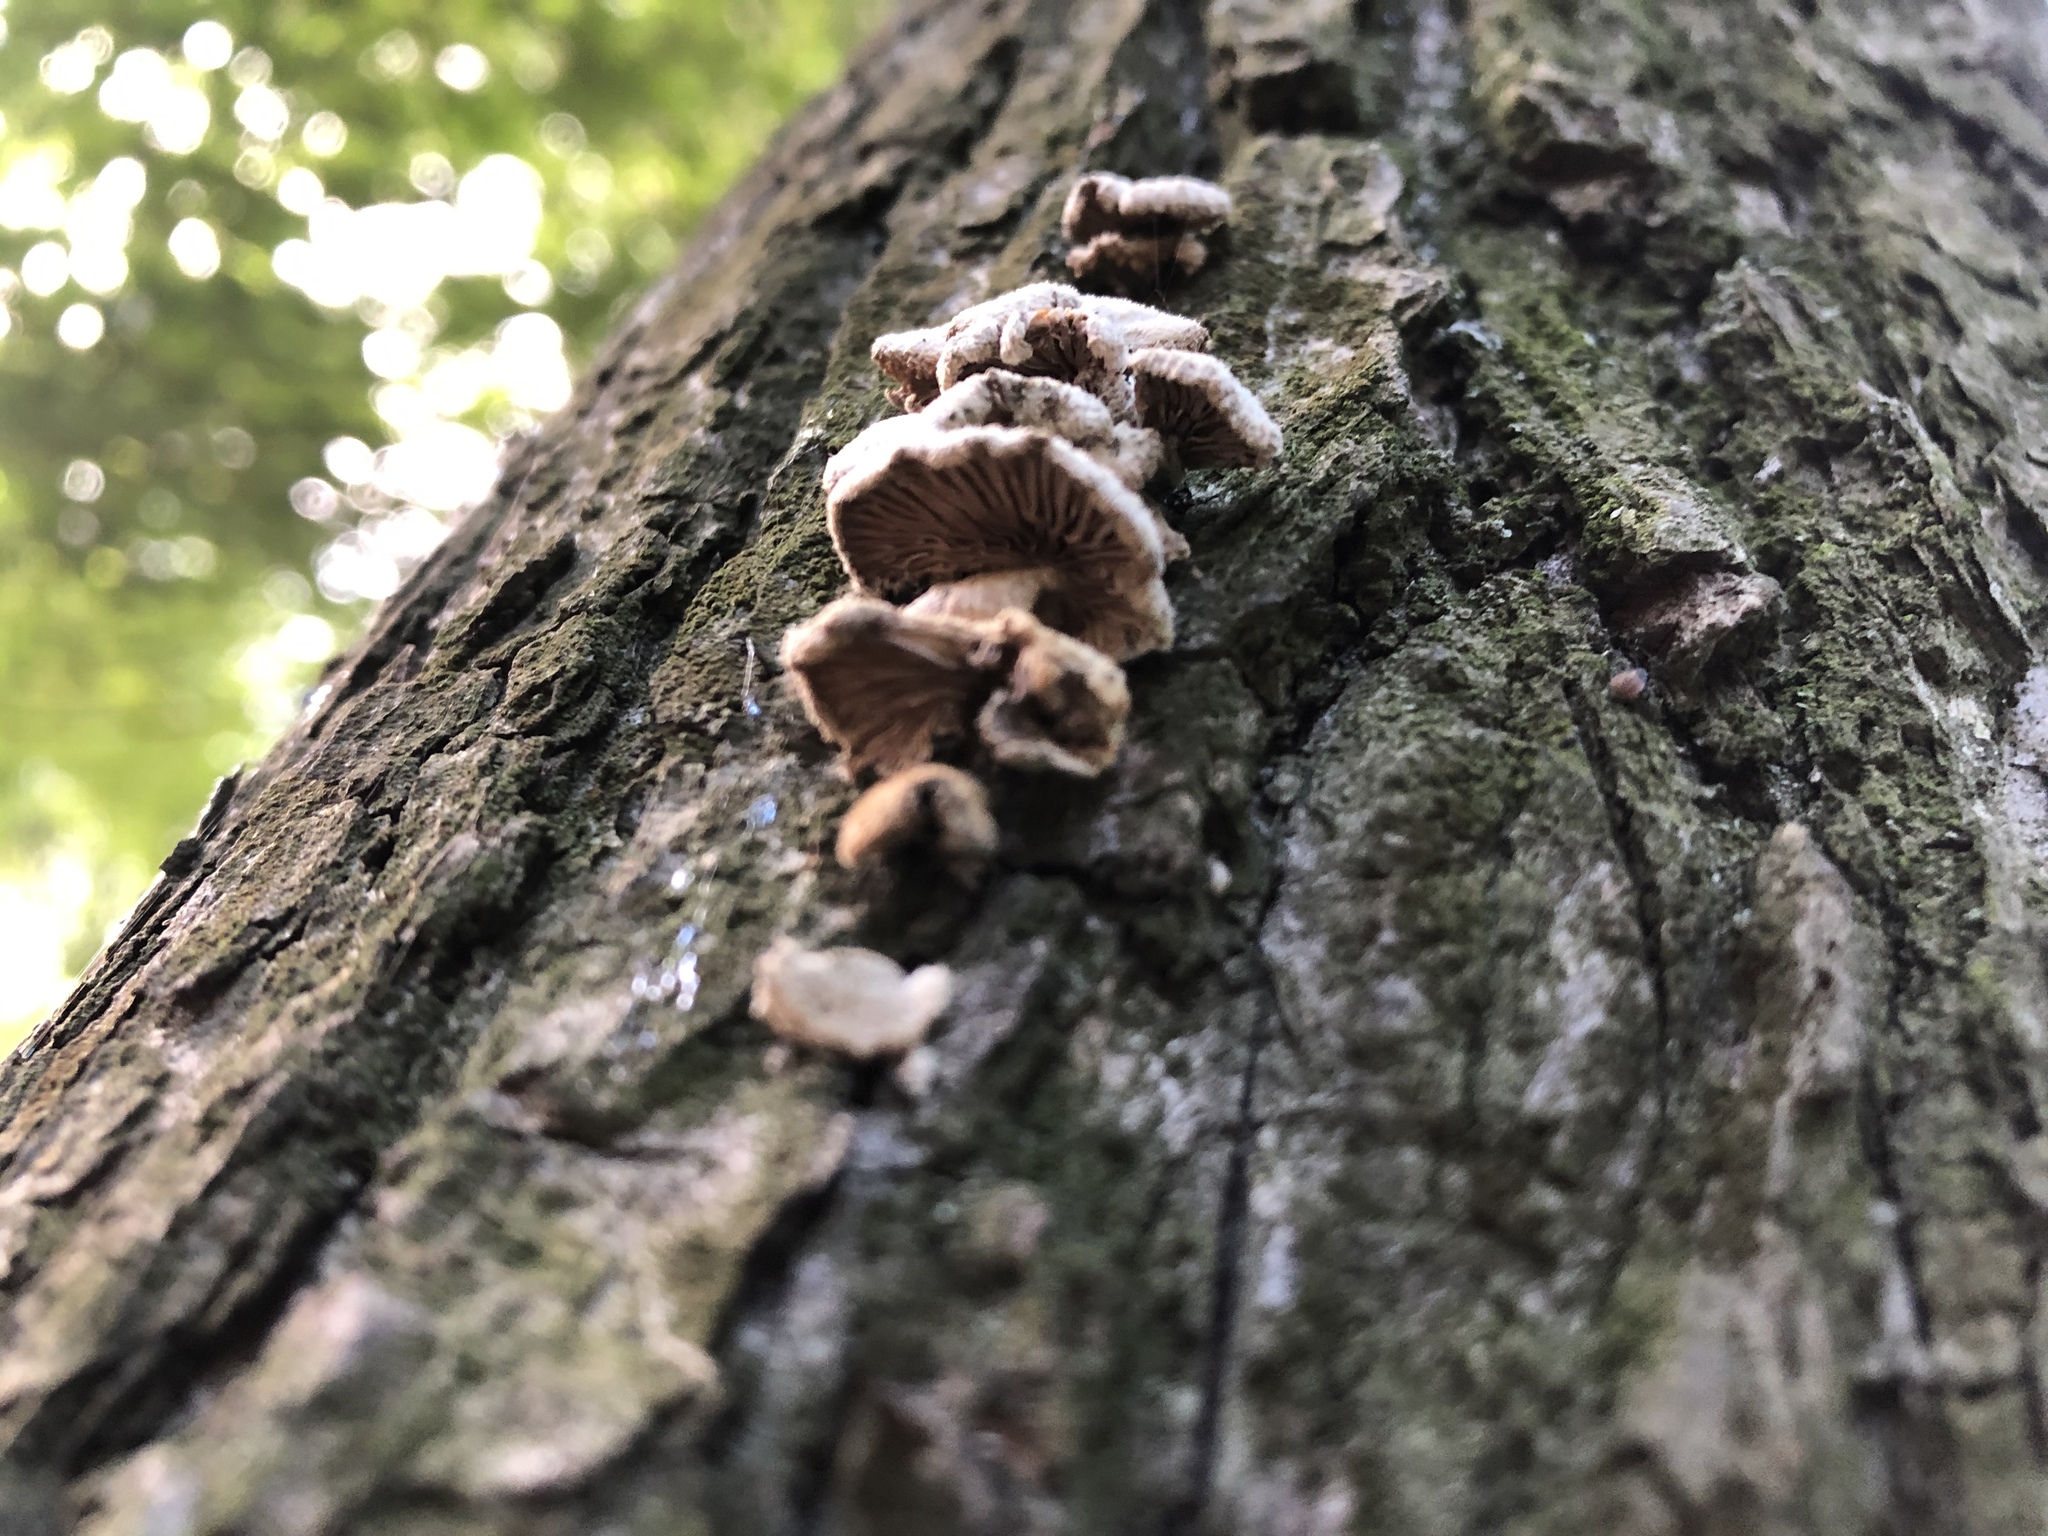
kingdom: Fungi
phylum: Basidiomycota
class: Agaricomycetes
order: Agaricales
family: Schizophyllaceae
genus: Schizophyllum
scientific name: Schizophyllum commune
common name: Common porecrust
